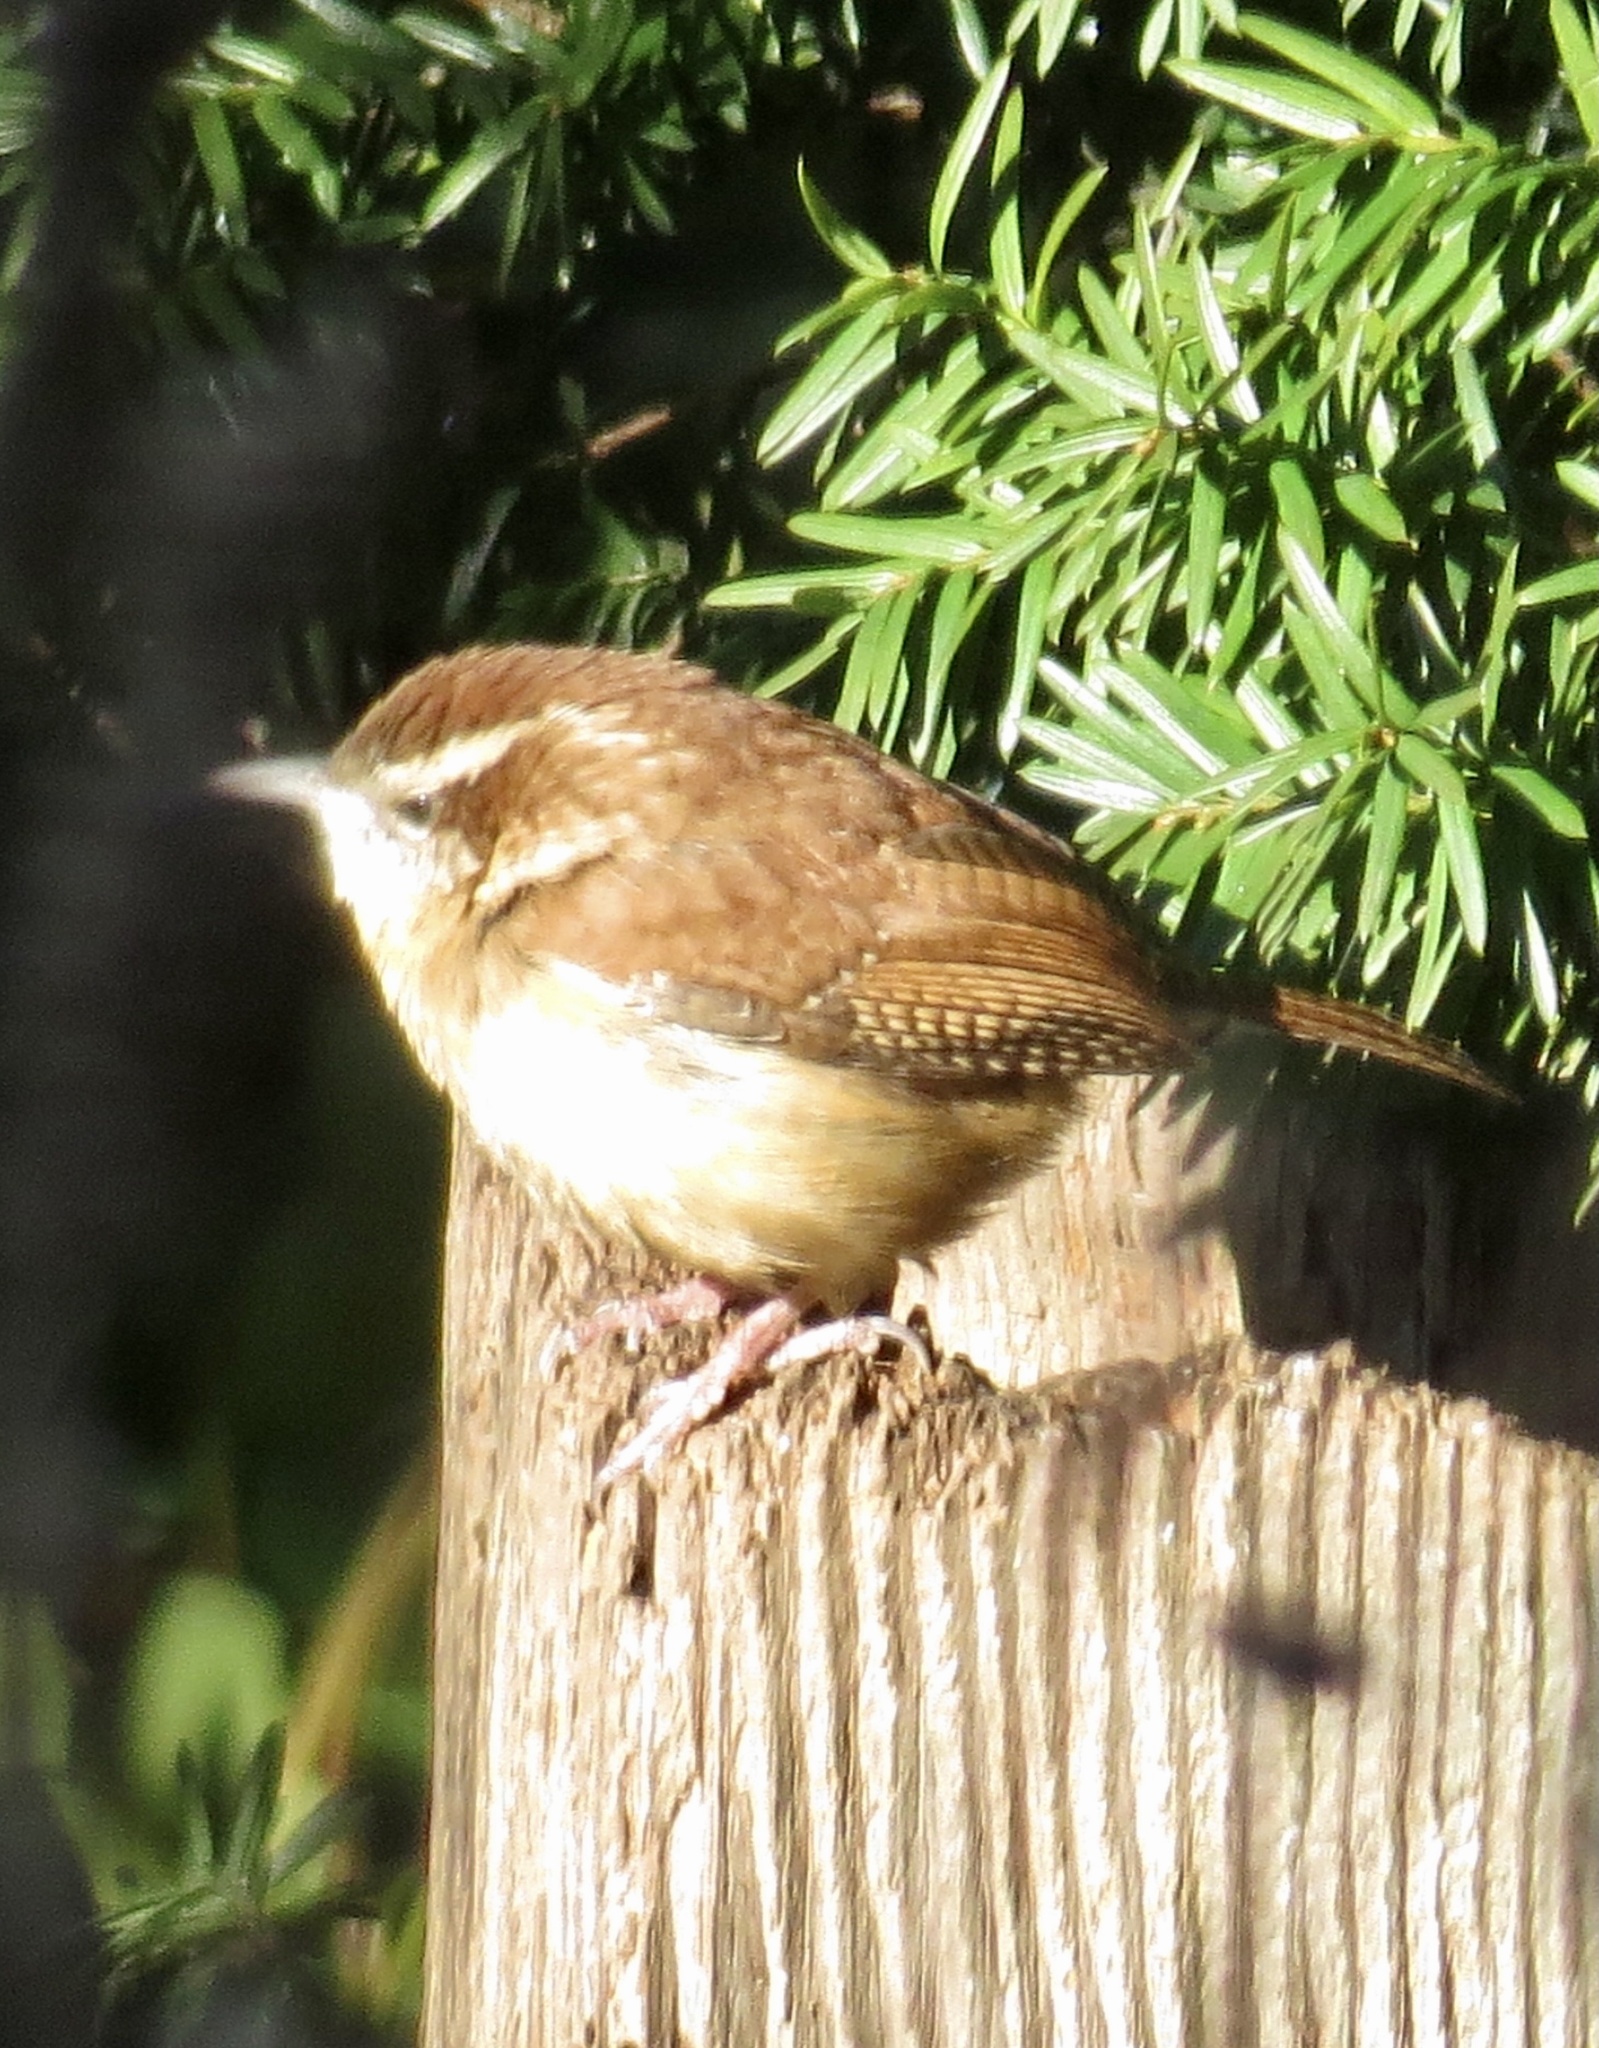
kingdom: Animalia
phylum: Chordata
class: Aves
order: Passeriformes
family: Troglodytidae
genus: Thryothorus
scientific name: Thryothorus ludovicianus
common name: Carolina wren
